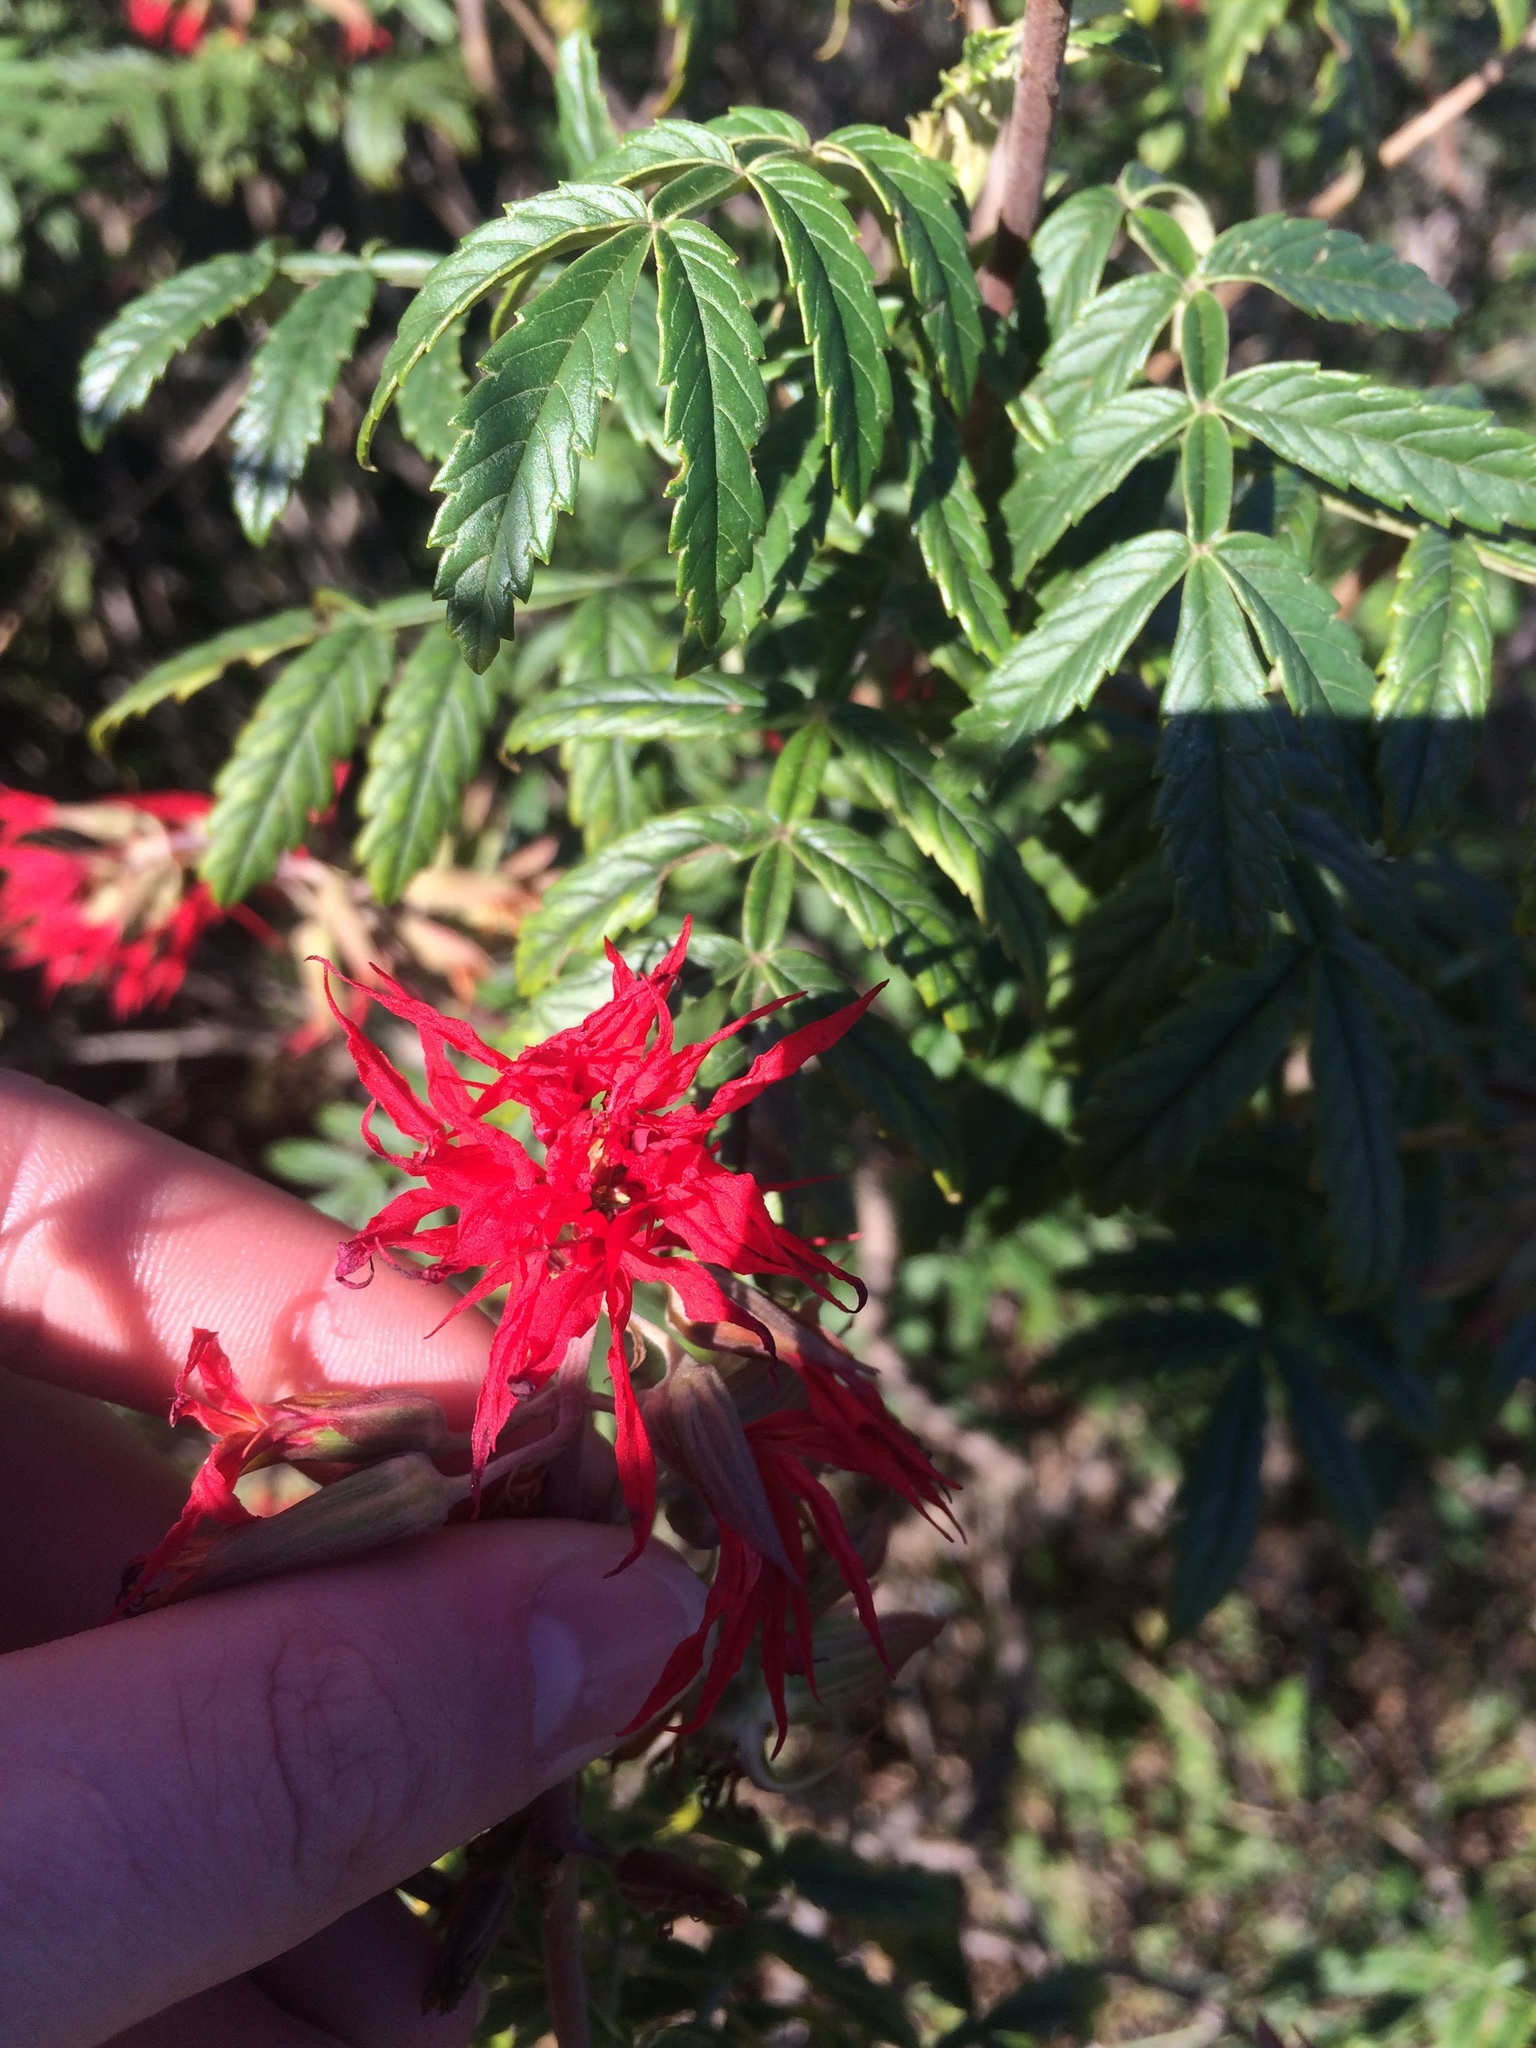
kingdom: Plantae
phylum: Tracheophyta
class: Magnoliopsida
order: Geraniales
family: Melianthaceae
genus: Melianthus
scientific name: Melianthus elongatus
